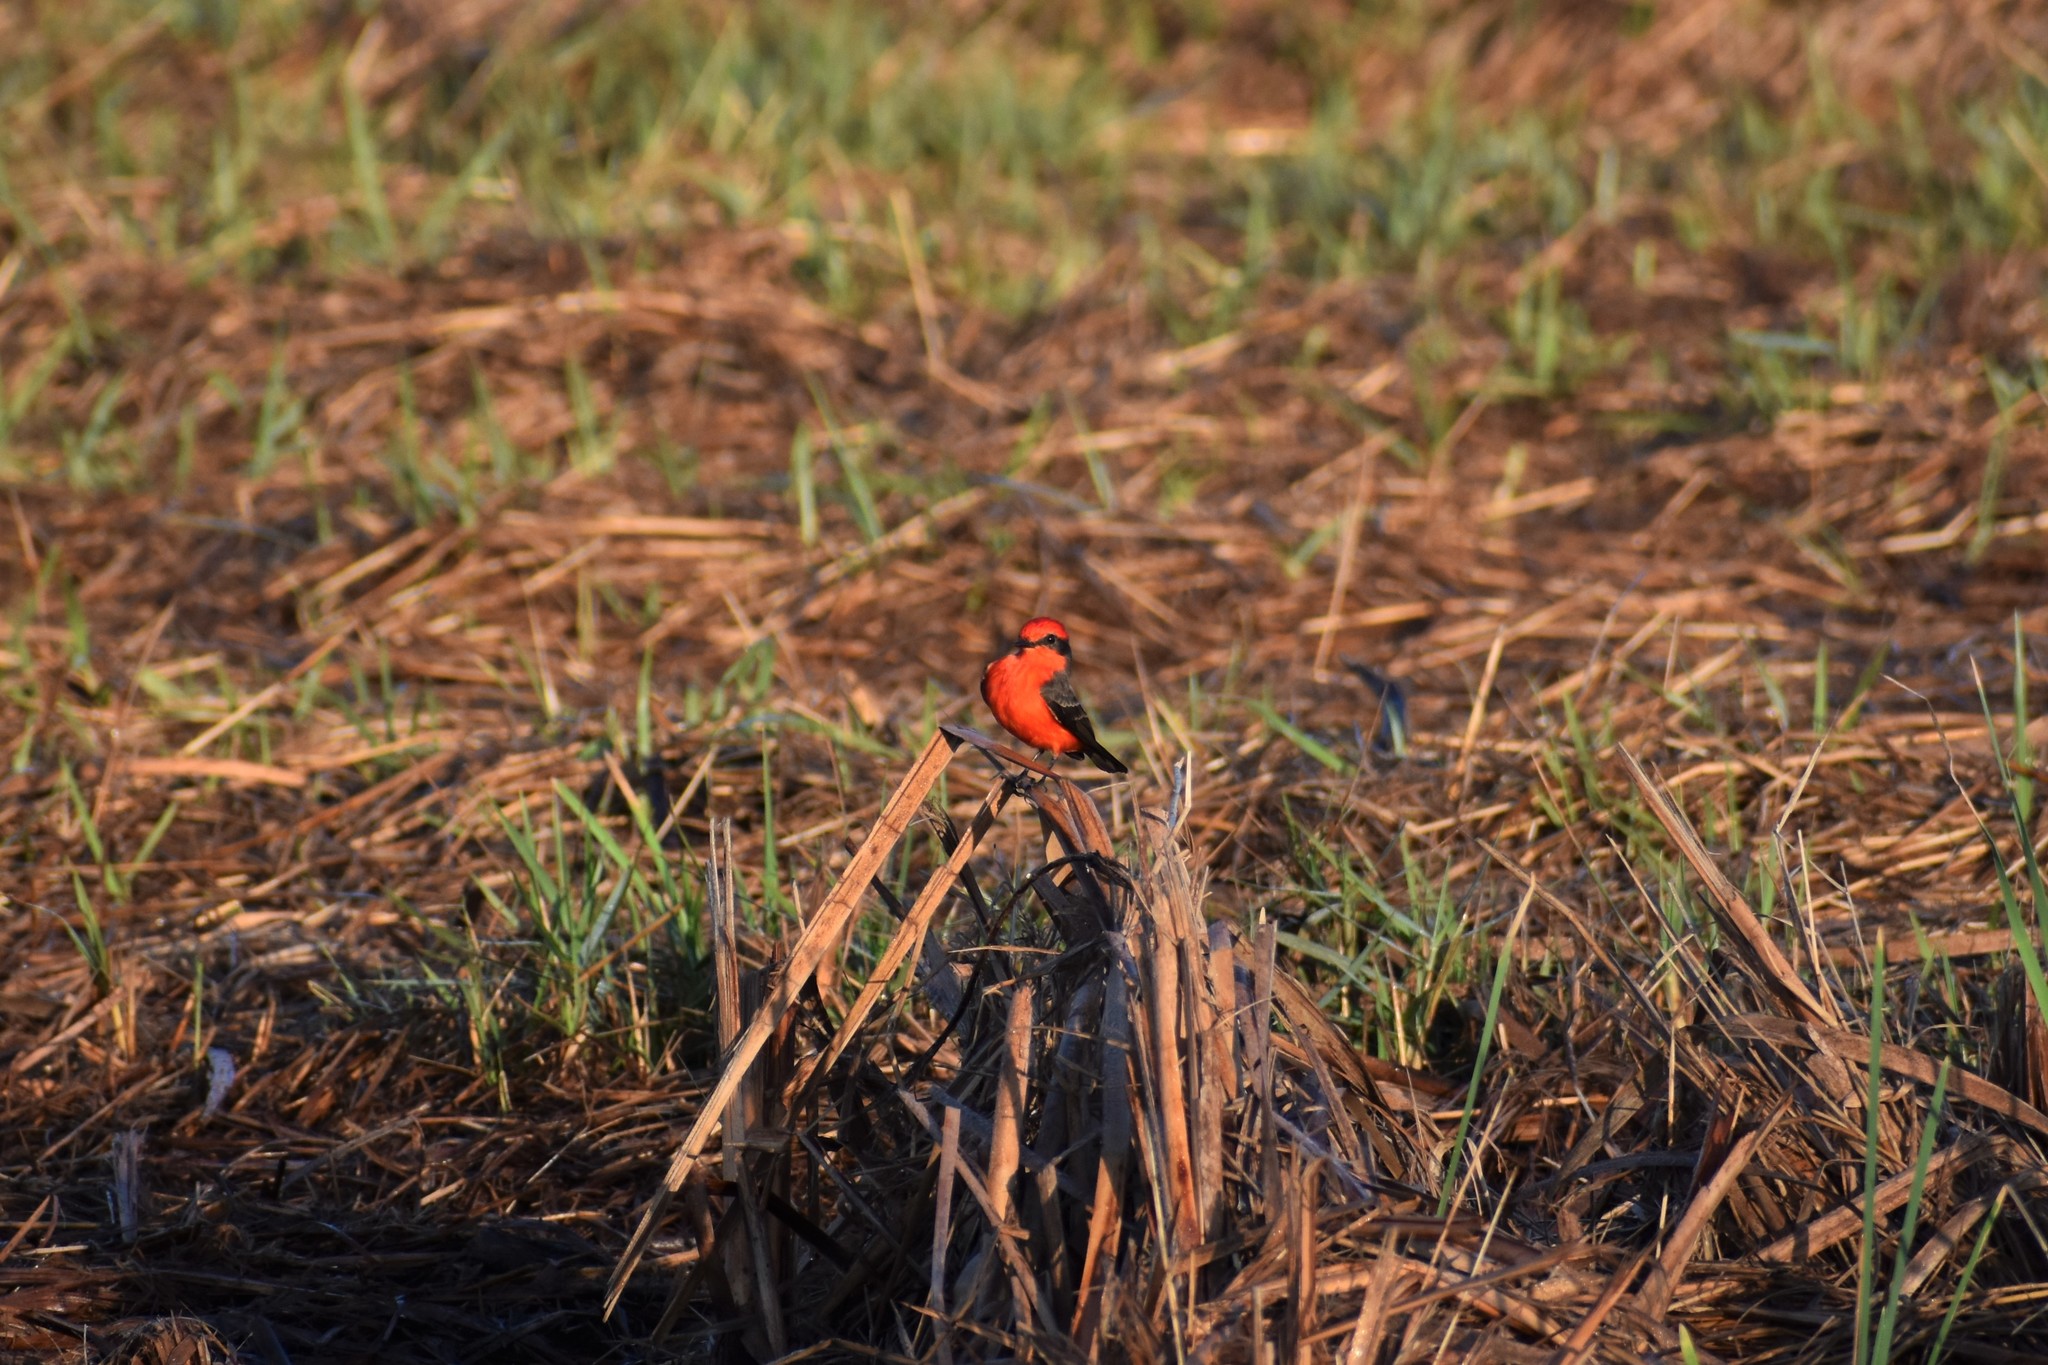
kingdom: Animalia
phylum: Chordata
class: Aves
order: Passeriformes
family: Tyrannidae
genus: Pyrocephalus
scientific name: Pyrocephalus rubinus
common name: Vermilion flycatcher
